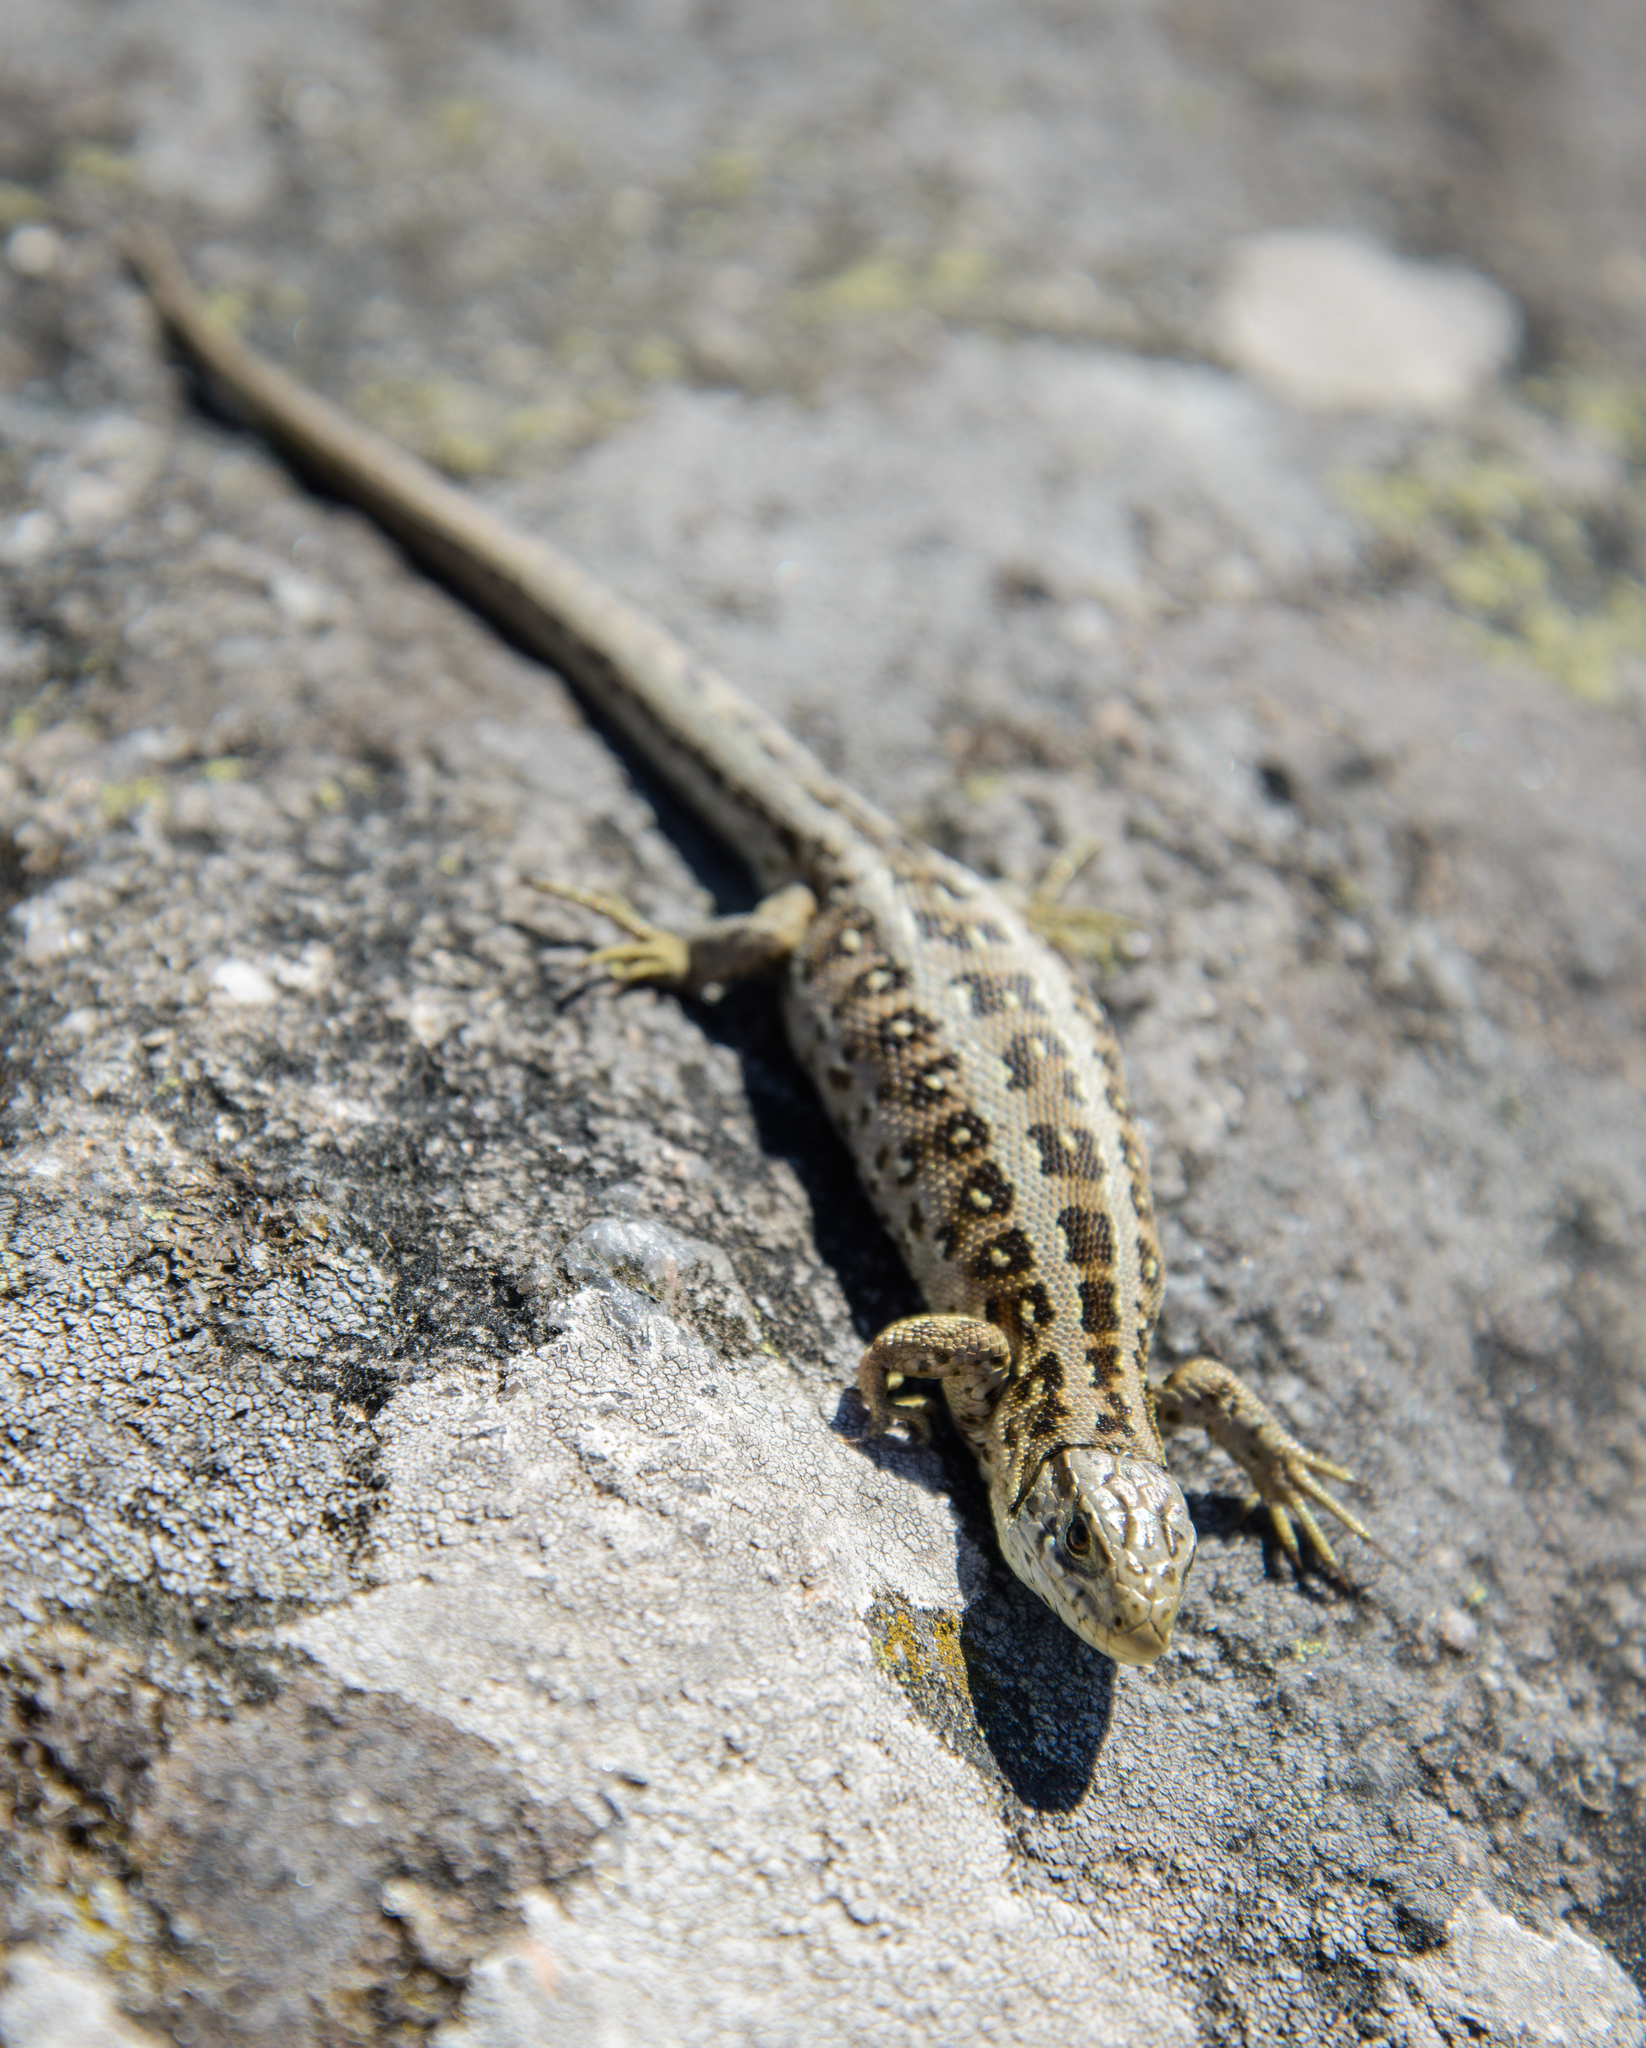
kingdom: Animalia
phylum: Chordata
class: Squamata
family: Lacertidae
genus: Lacerta
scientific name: Lacerta agilis
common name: Sand lizard
